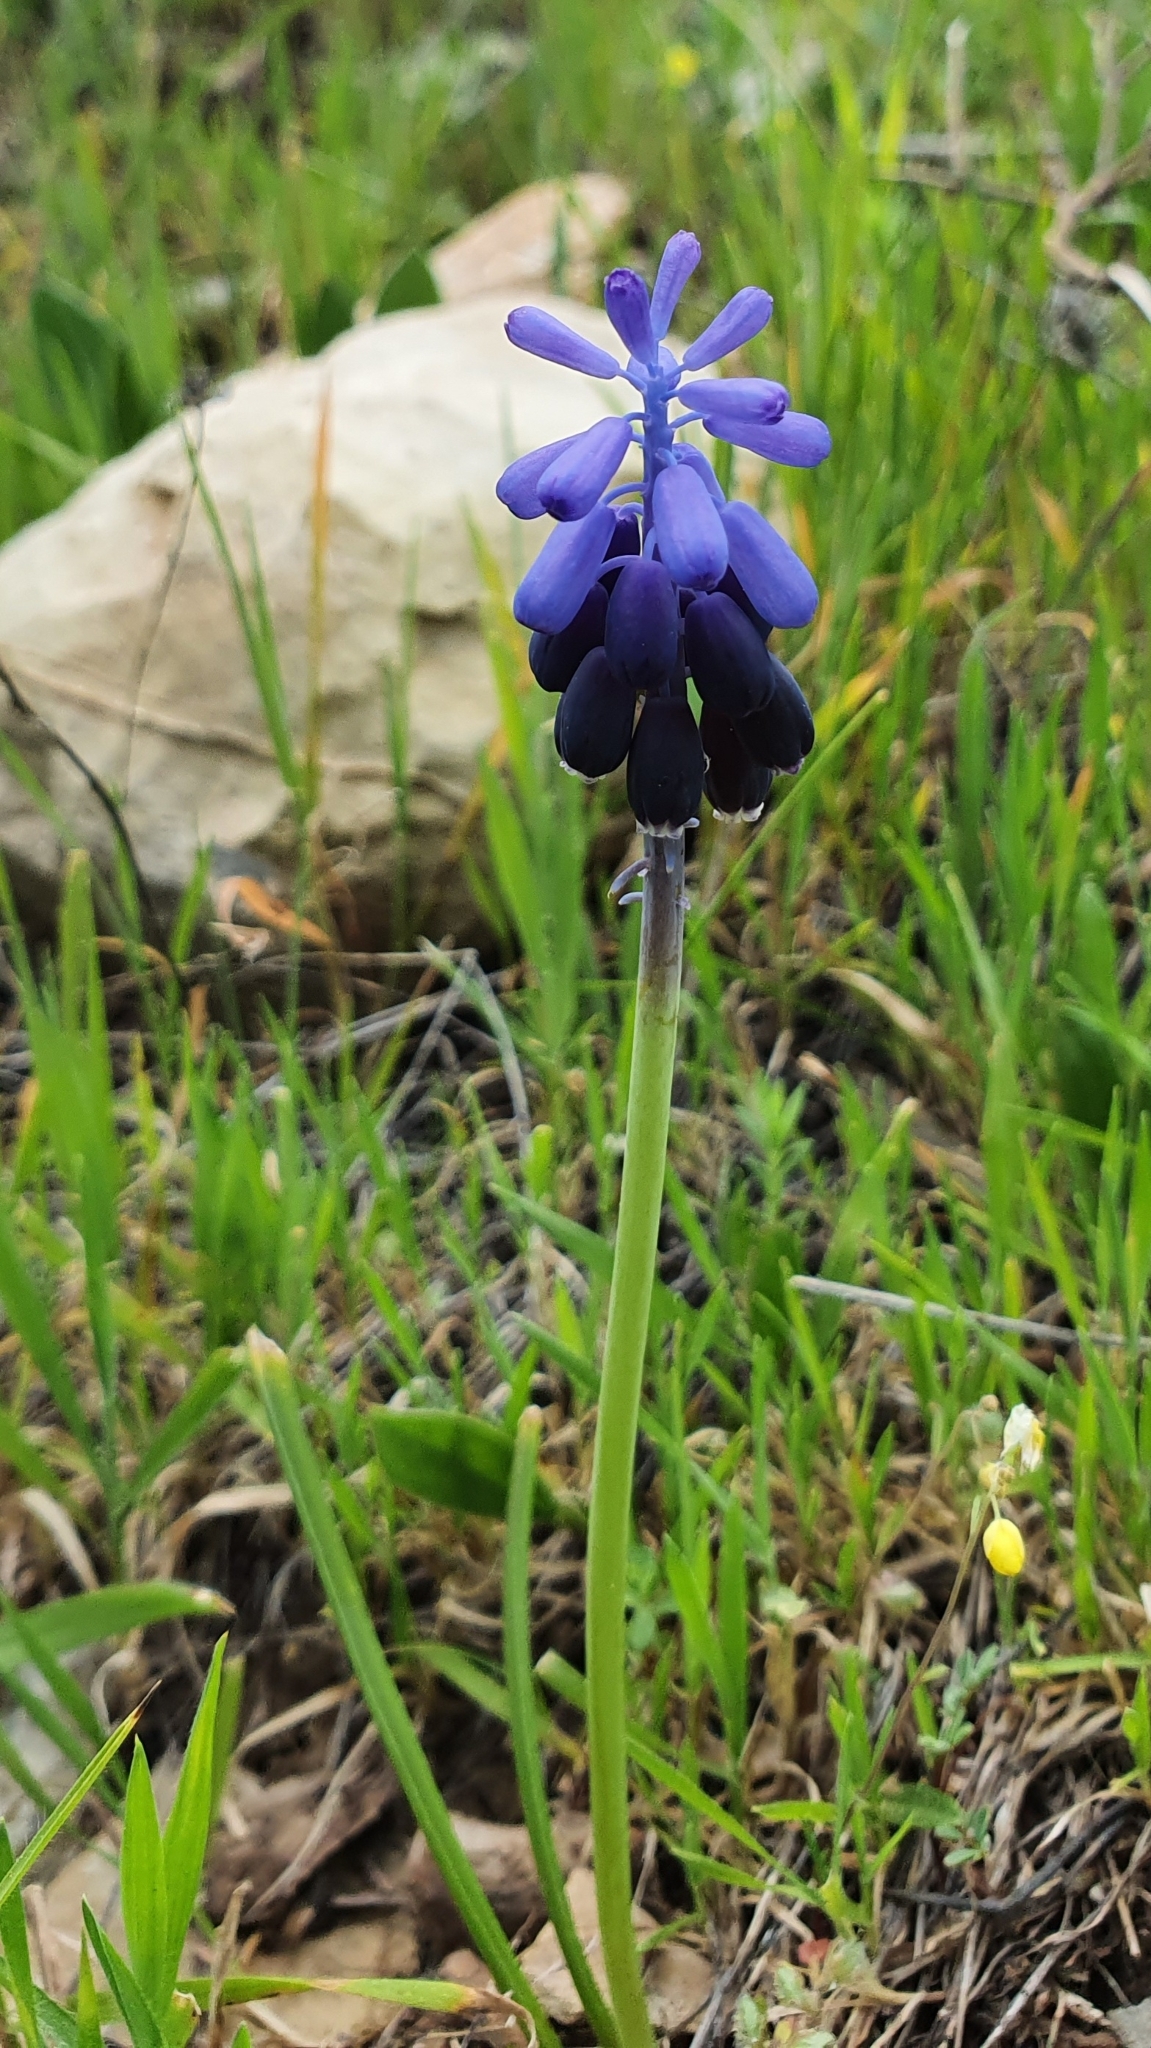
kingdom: Plantae
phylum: Tracheophyta
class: Liliopsida
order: Asparagales
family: Asparagaceae
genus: Muscari
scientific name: Muscari baeticum
